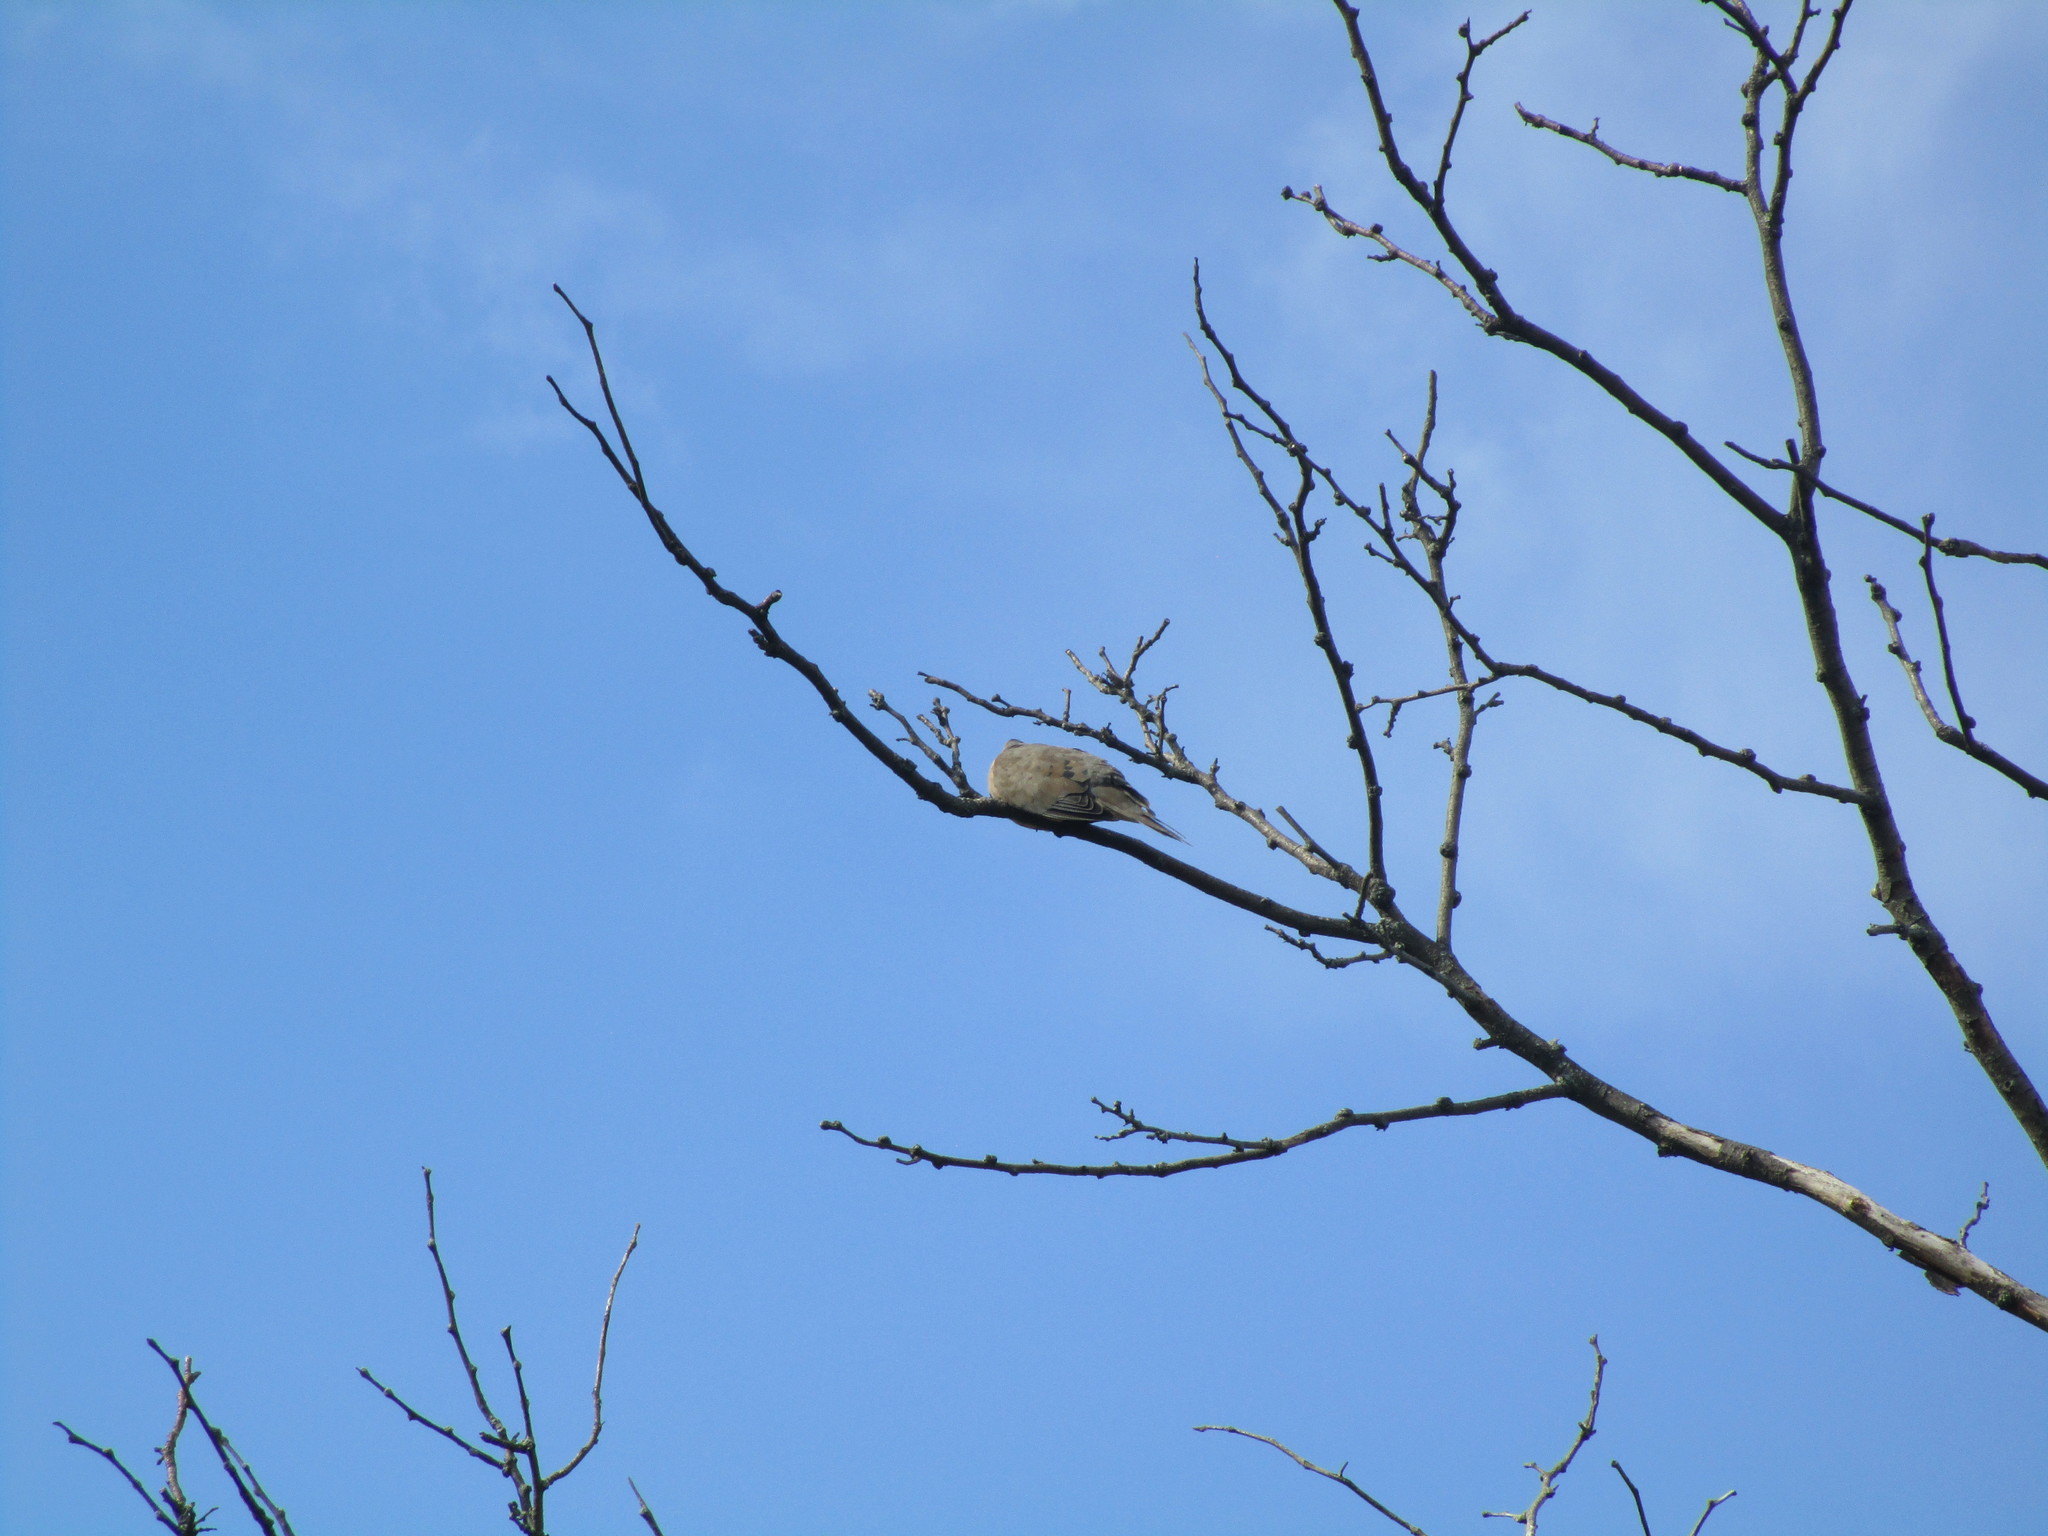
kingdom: Animalia
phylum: Chordata
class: Aves
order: Columbiformes
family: Columbidae
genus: Zenaida
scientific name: Zenaida macroura
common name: Mourning dove
